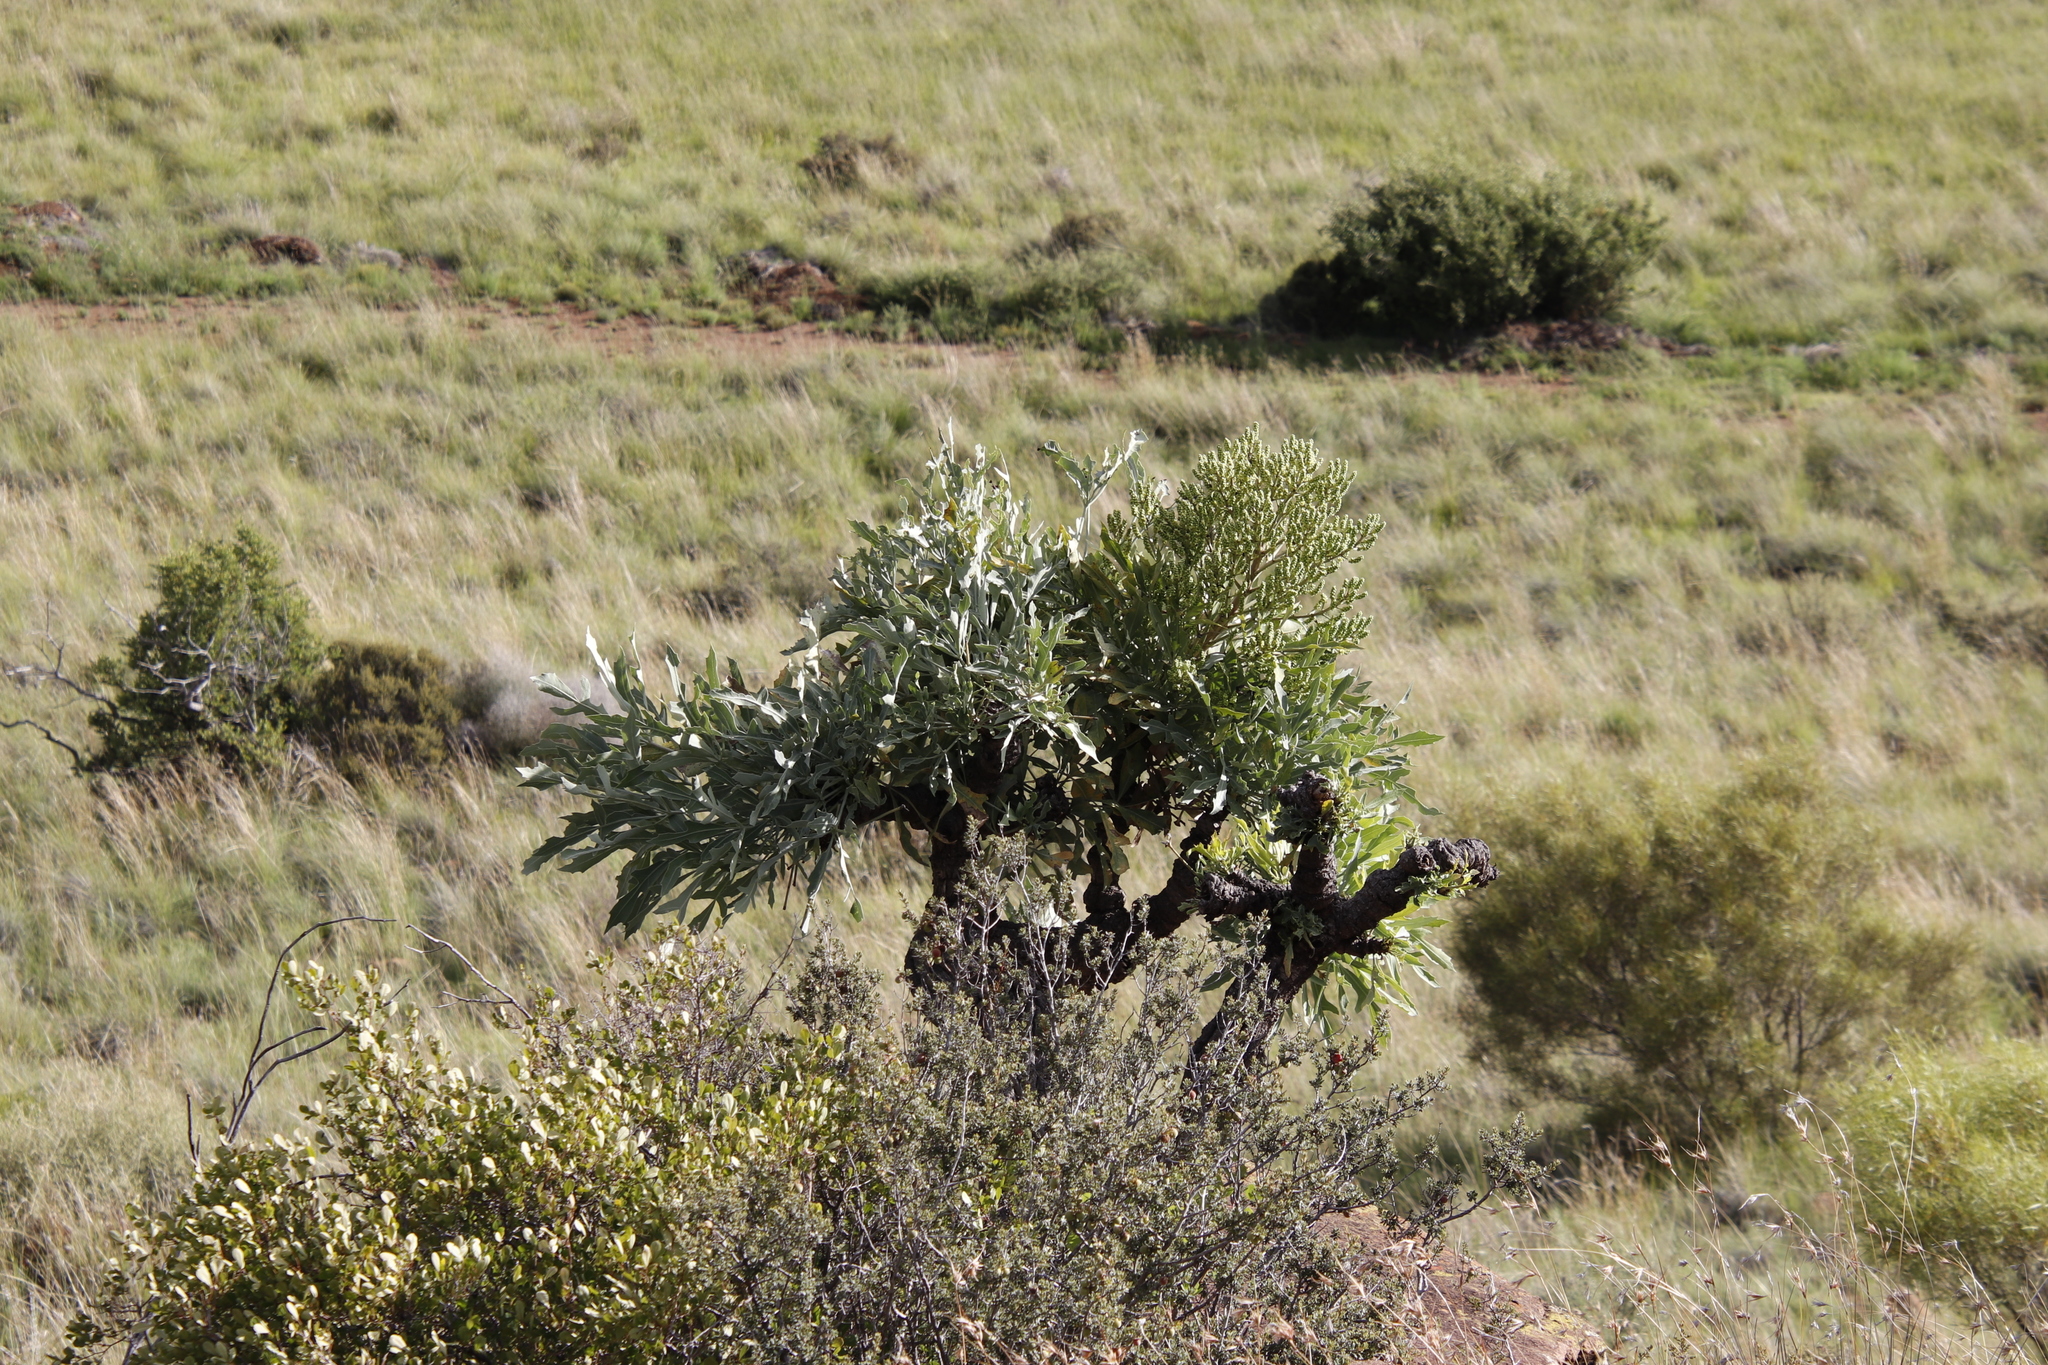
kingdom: Plantae
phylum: Tracheophyta
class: Magnoliopsida
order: Apiales
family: Araliaceae
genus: Cussonia
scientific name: Cussonia paniculata
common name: Cabbagetree
